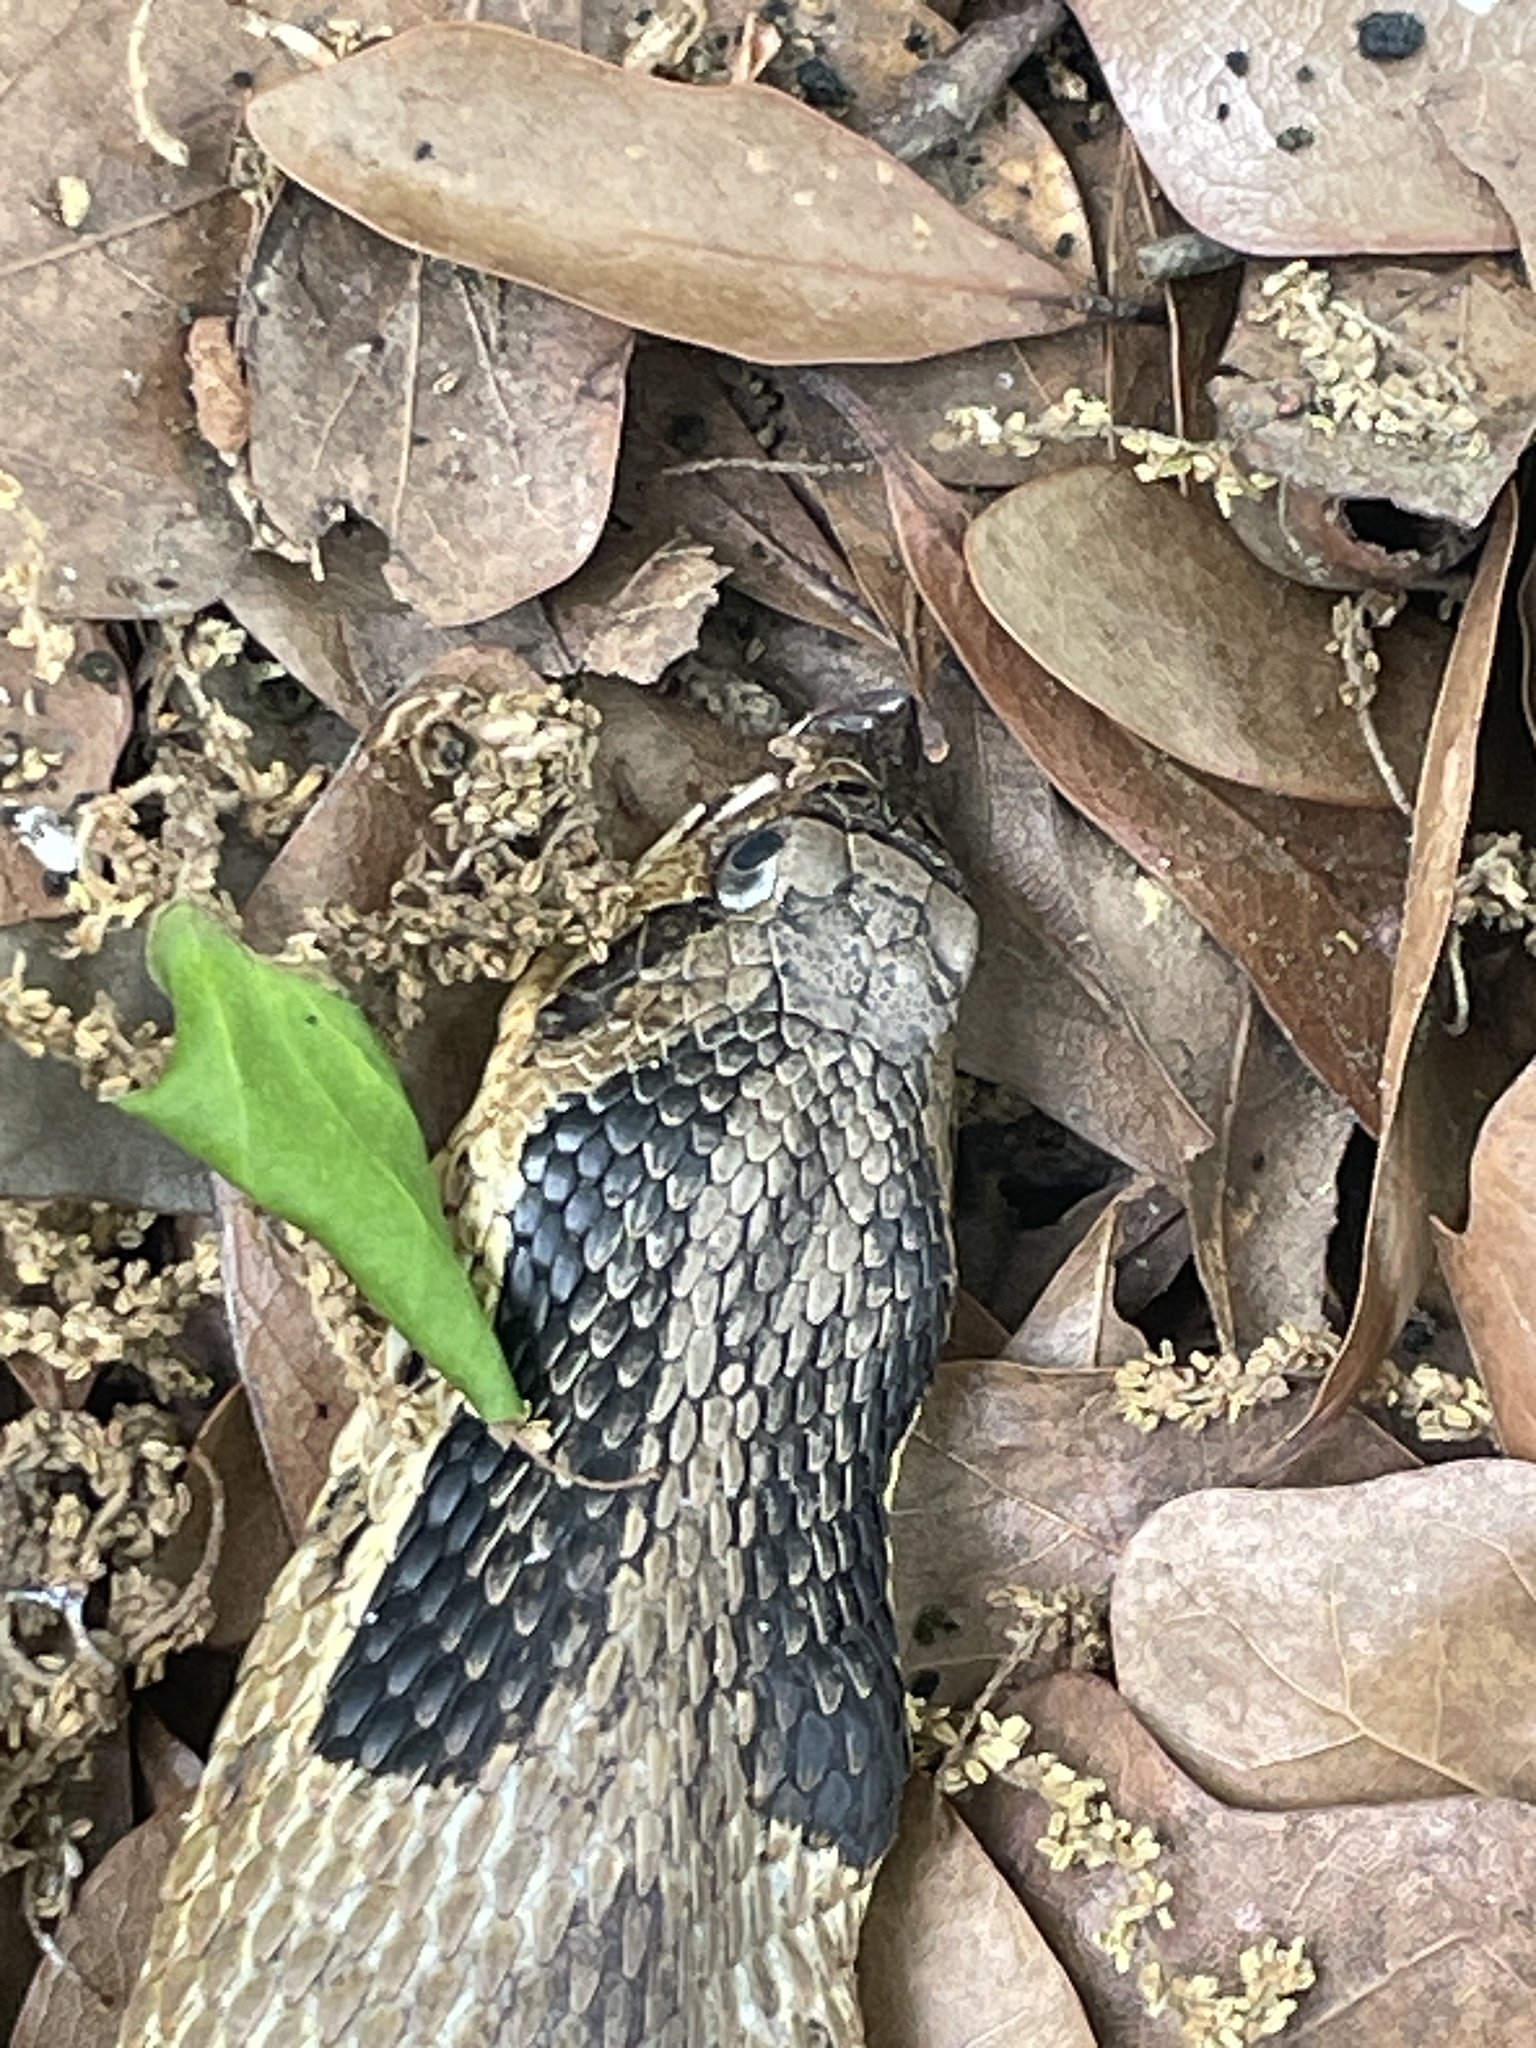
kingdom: Animalia
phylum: Chordata
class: Squamata
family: Colubridae
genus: Heterodon
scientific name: Heterodon platirhinos
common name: Eastern hognose snake
